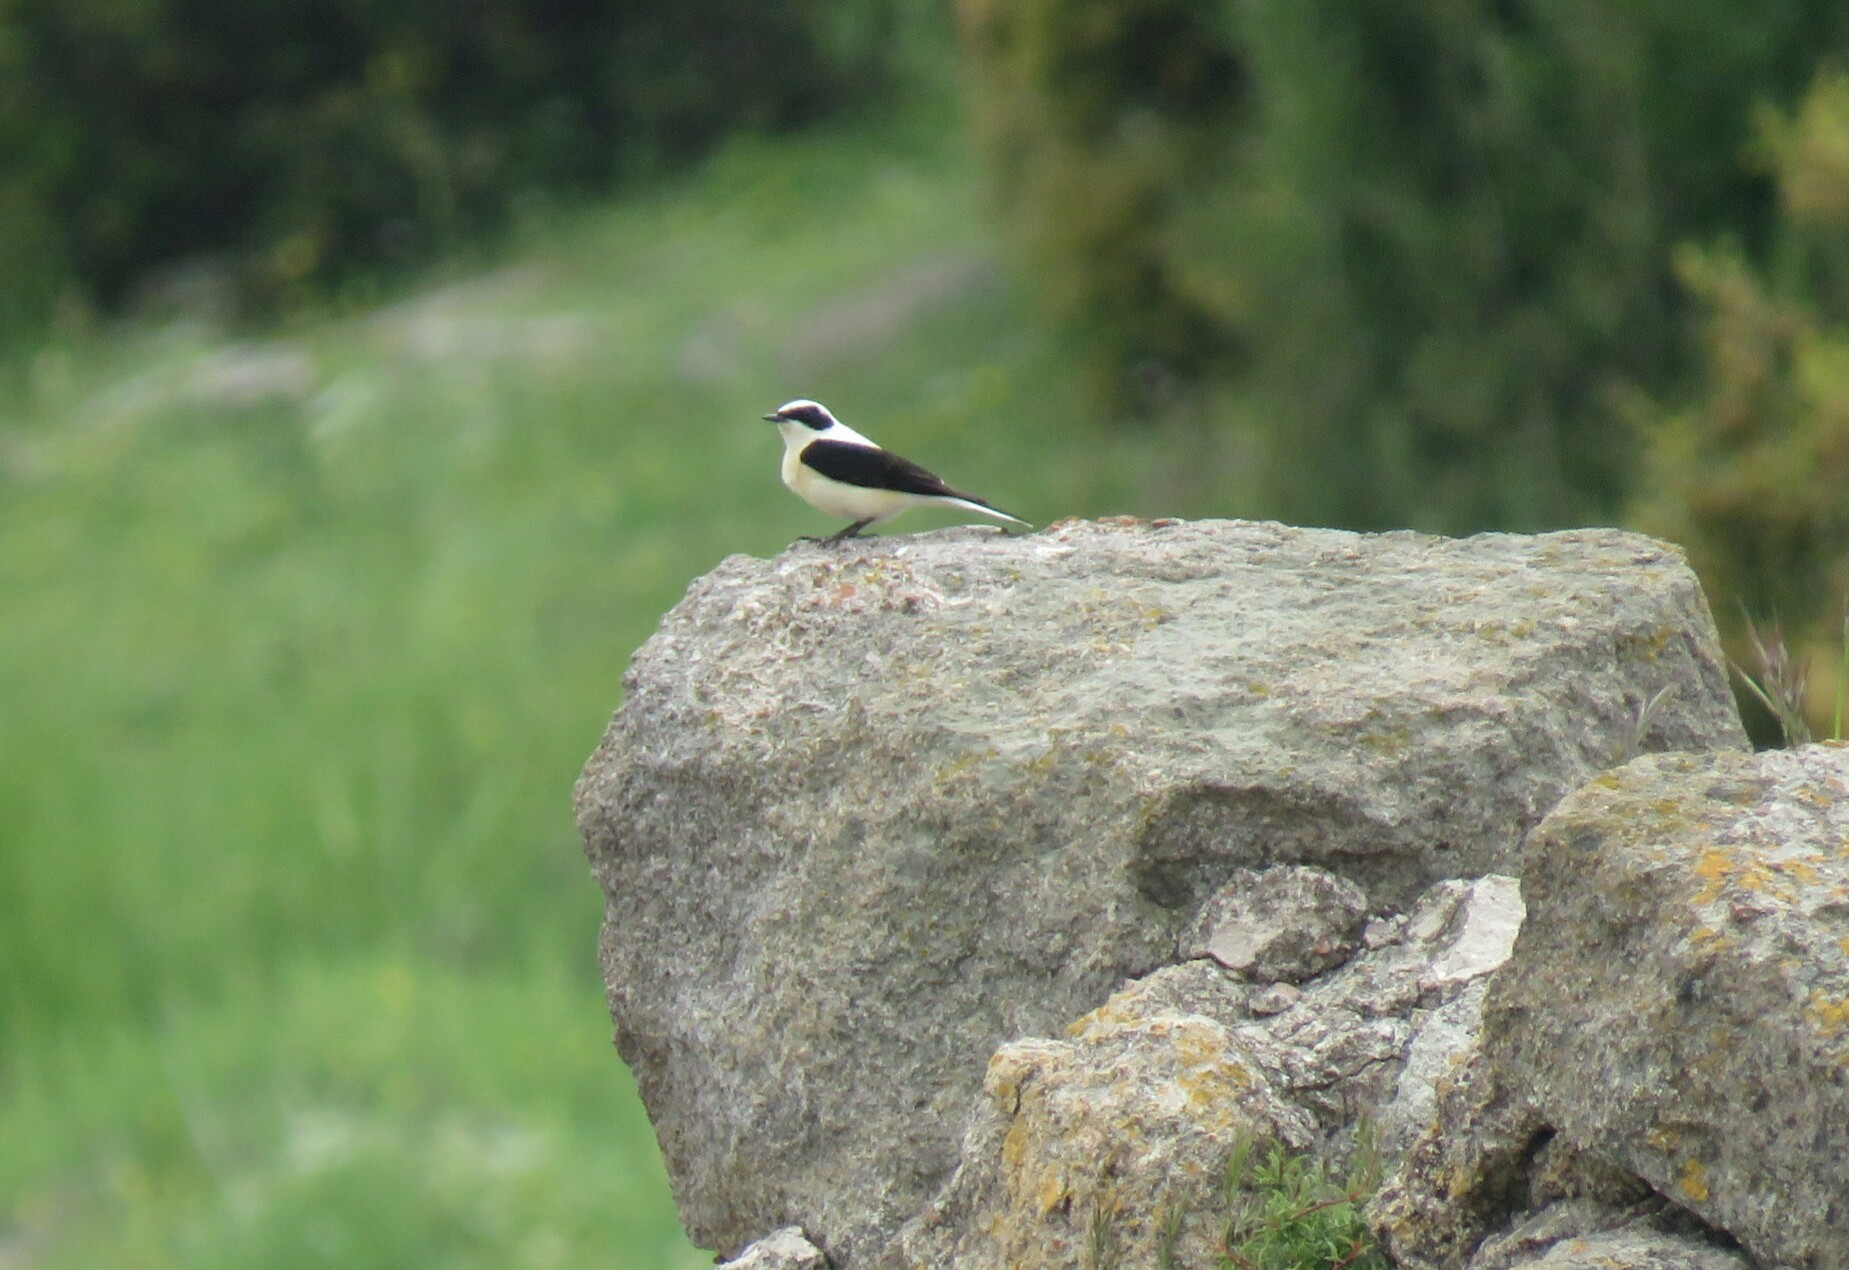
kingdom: Animalia
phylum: Chordata
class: Aves
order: Passeriformes
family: Muscicapidae
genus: Oenanthe
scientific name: Oenanthe hispanica
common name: Black-eared wheatear
